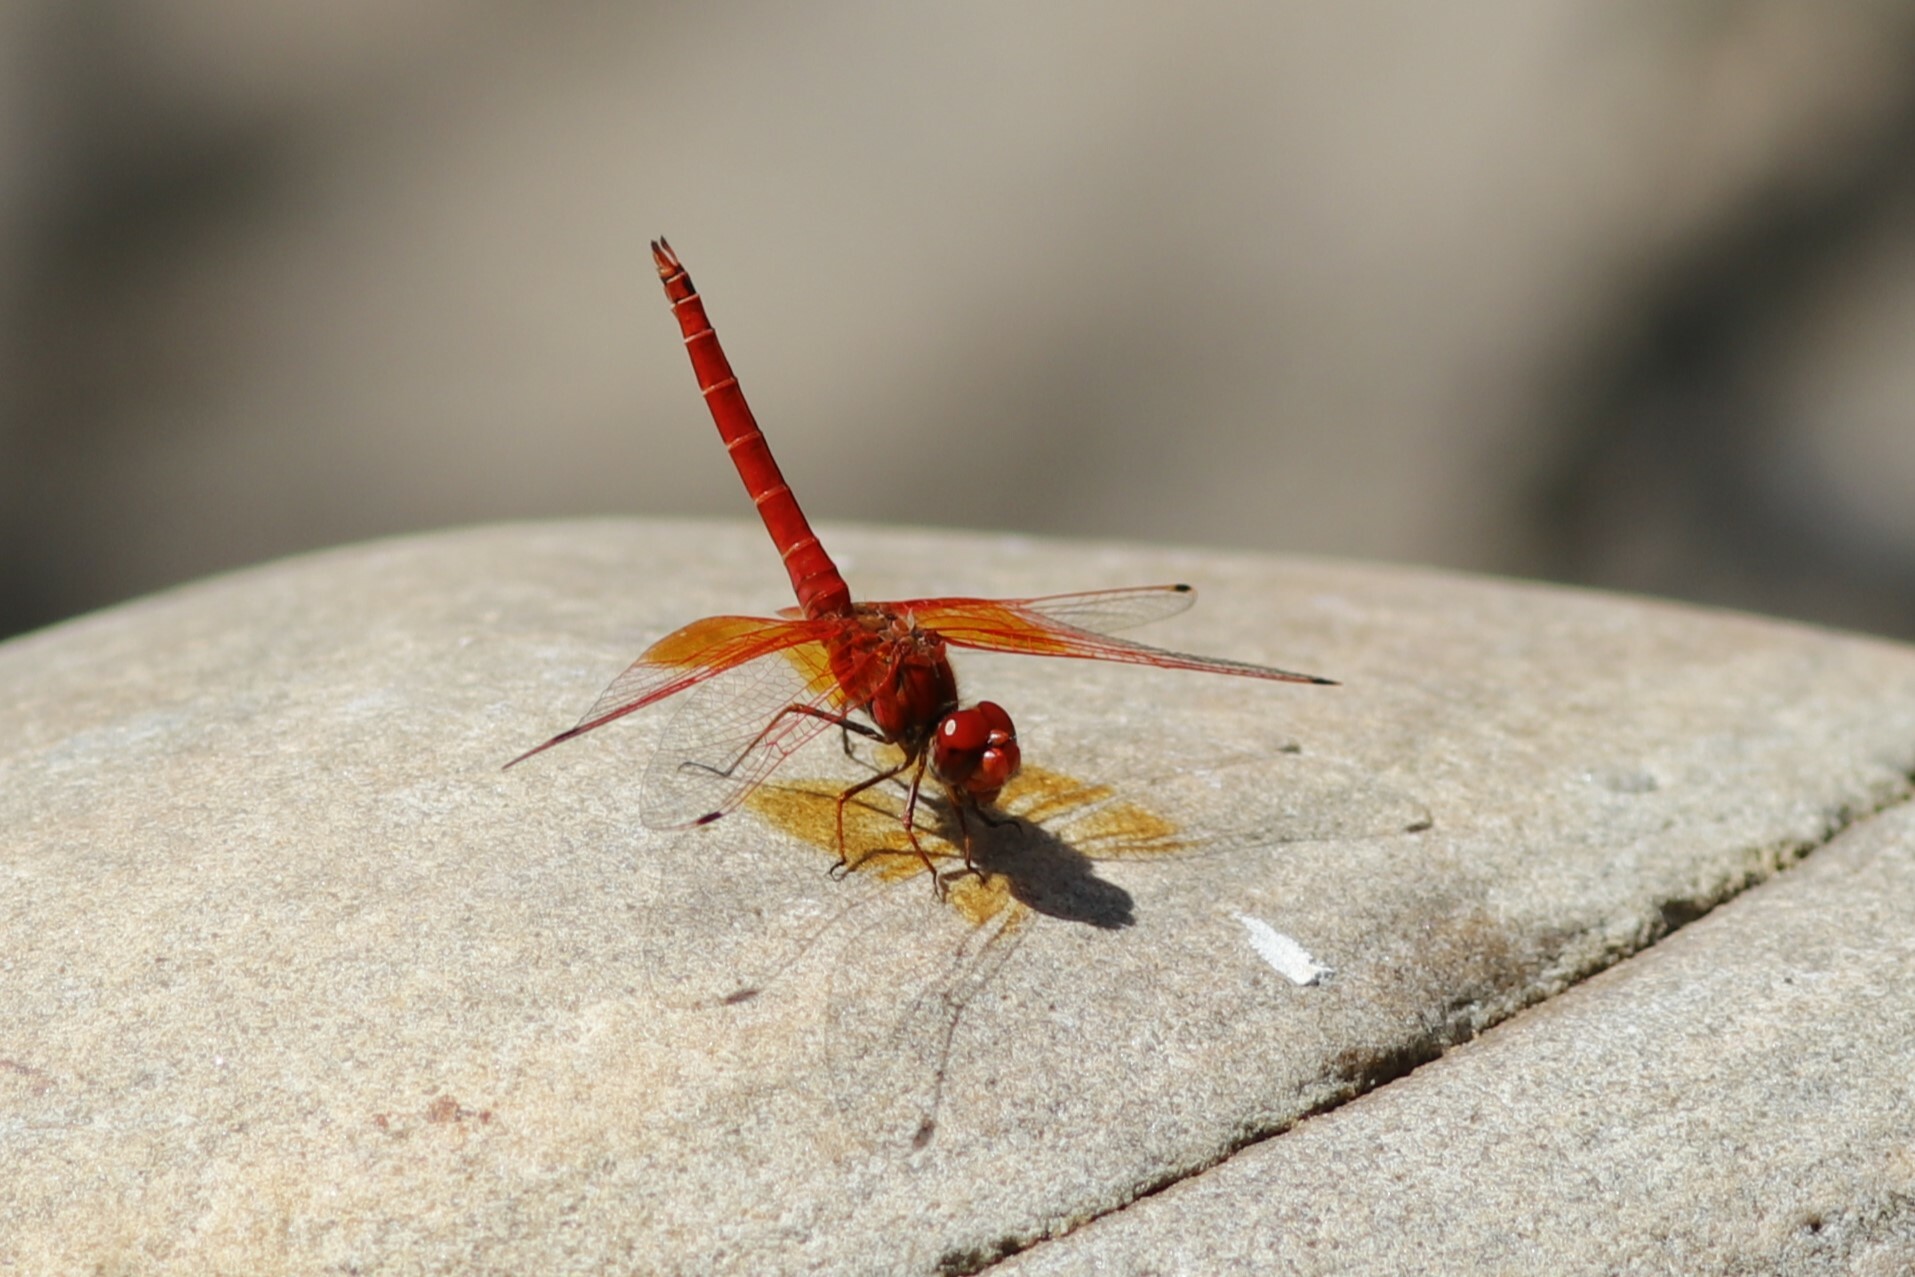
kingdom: Animalia
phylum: Arthropoda
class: Insecta
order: Odonata
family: Libellulidae
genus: Trithemis
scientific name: Trithemis kirbyi
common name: Kirby's dropwing
